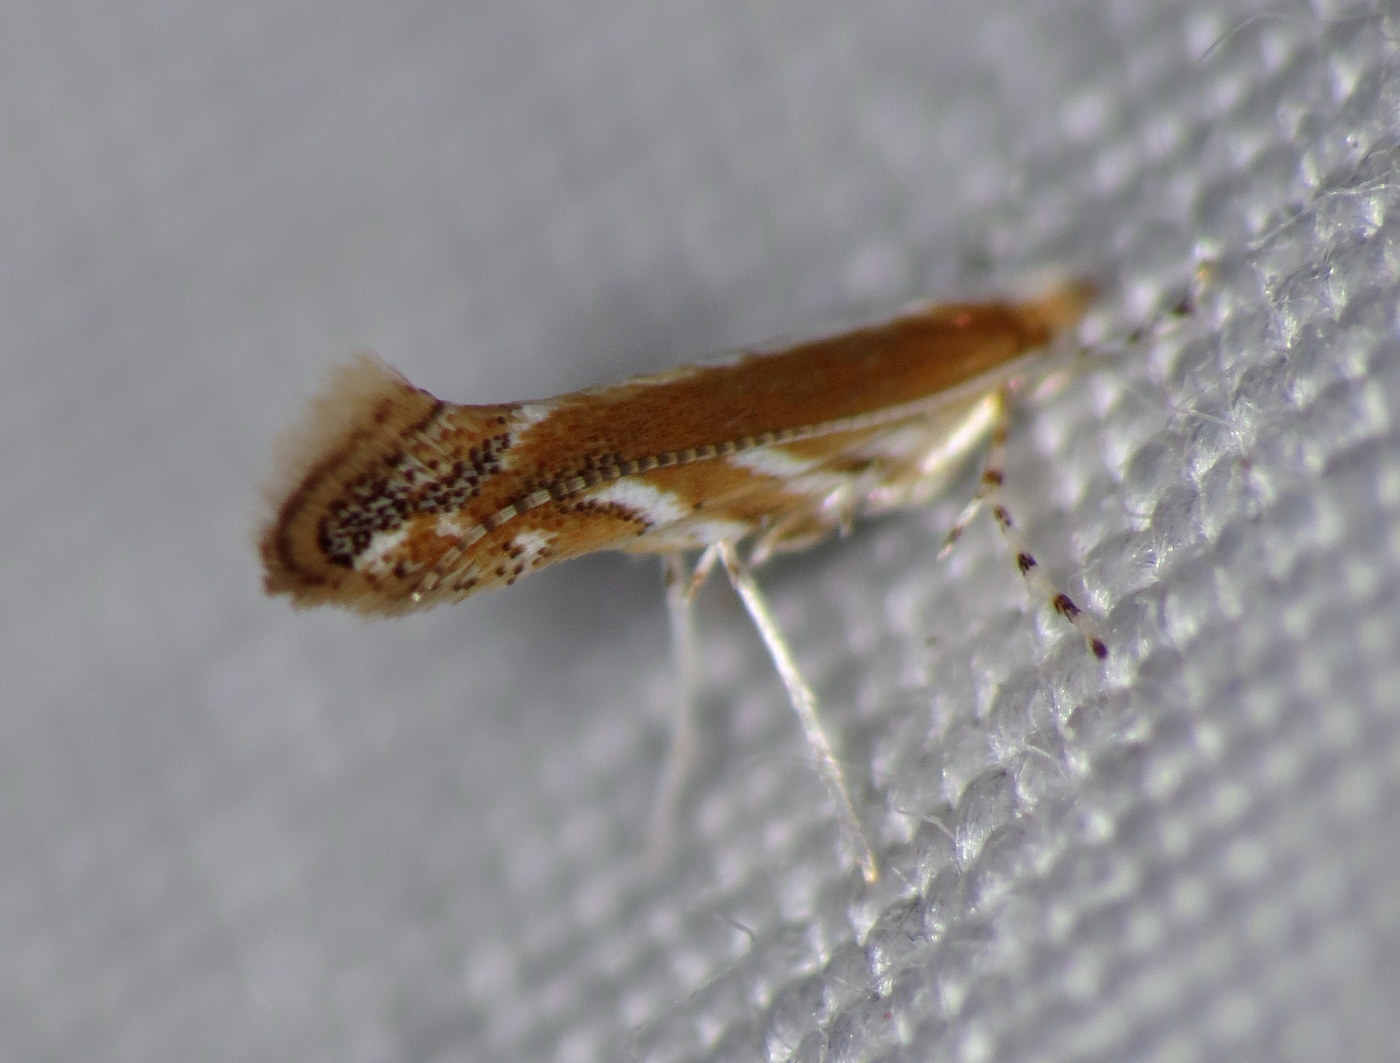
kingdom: Animalia
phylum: Arthropoda
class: Insecta
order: Lepidoptera
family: Gracillariidae
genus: Cameraria
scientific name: Cameraria conglomeratella
